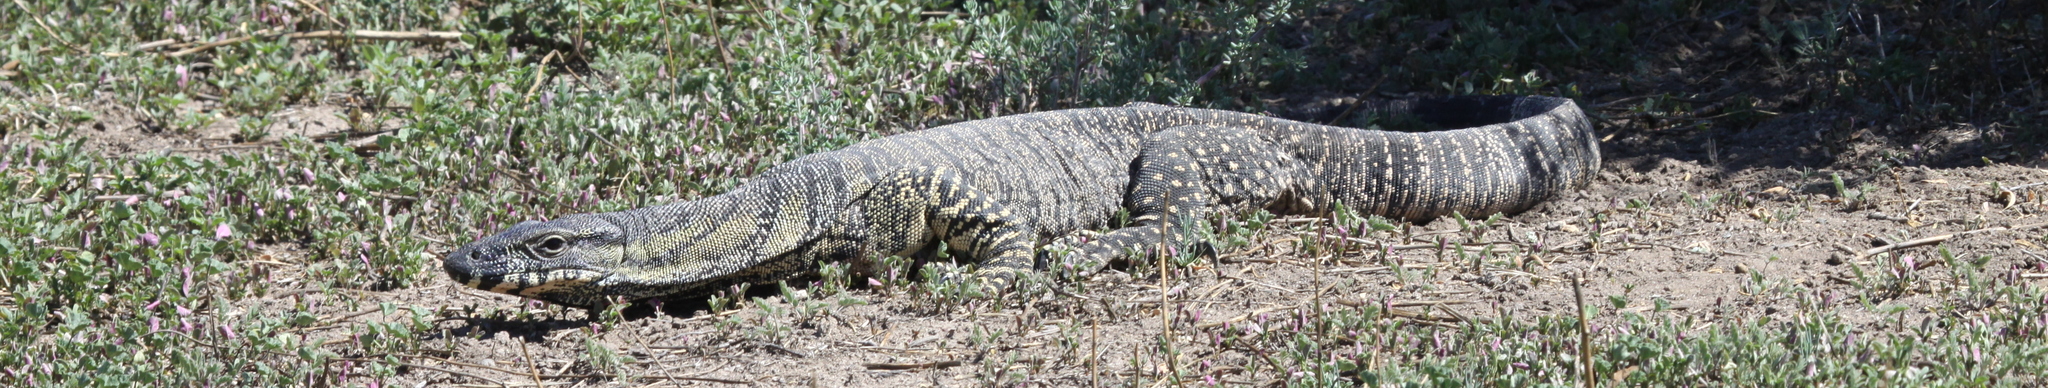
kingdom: Animalia
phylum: Chordata
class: Squamata
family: Varanidae
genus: Varanus
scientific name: Varanus varius
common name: Lace monitor
